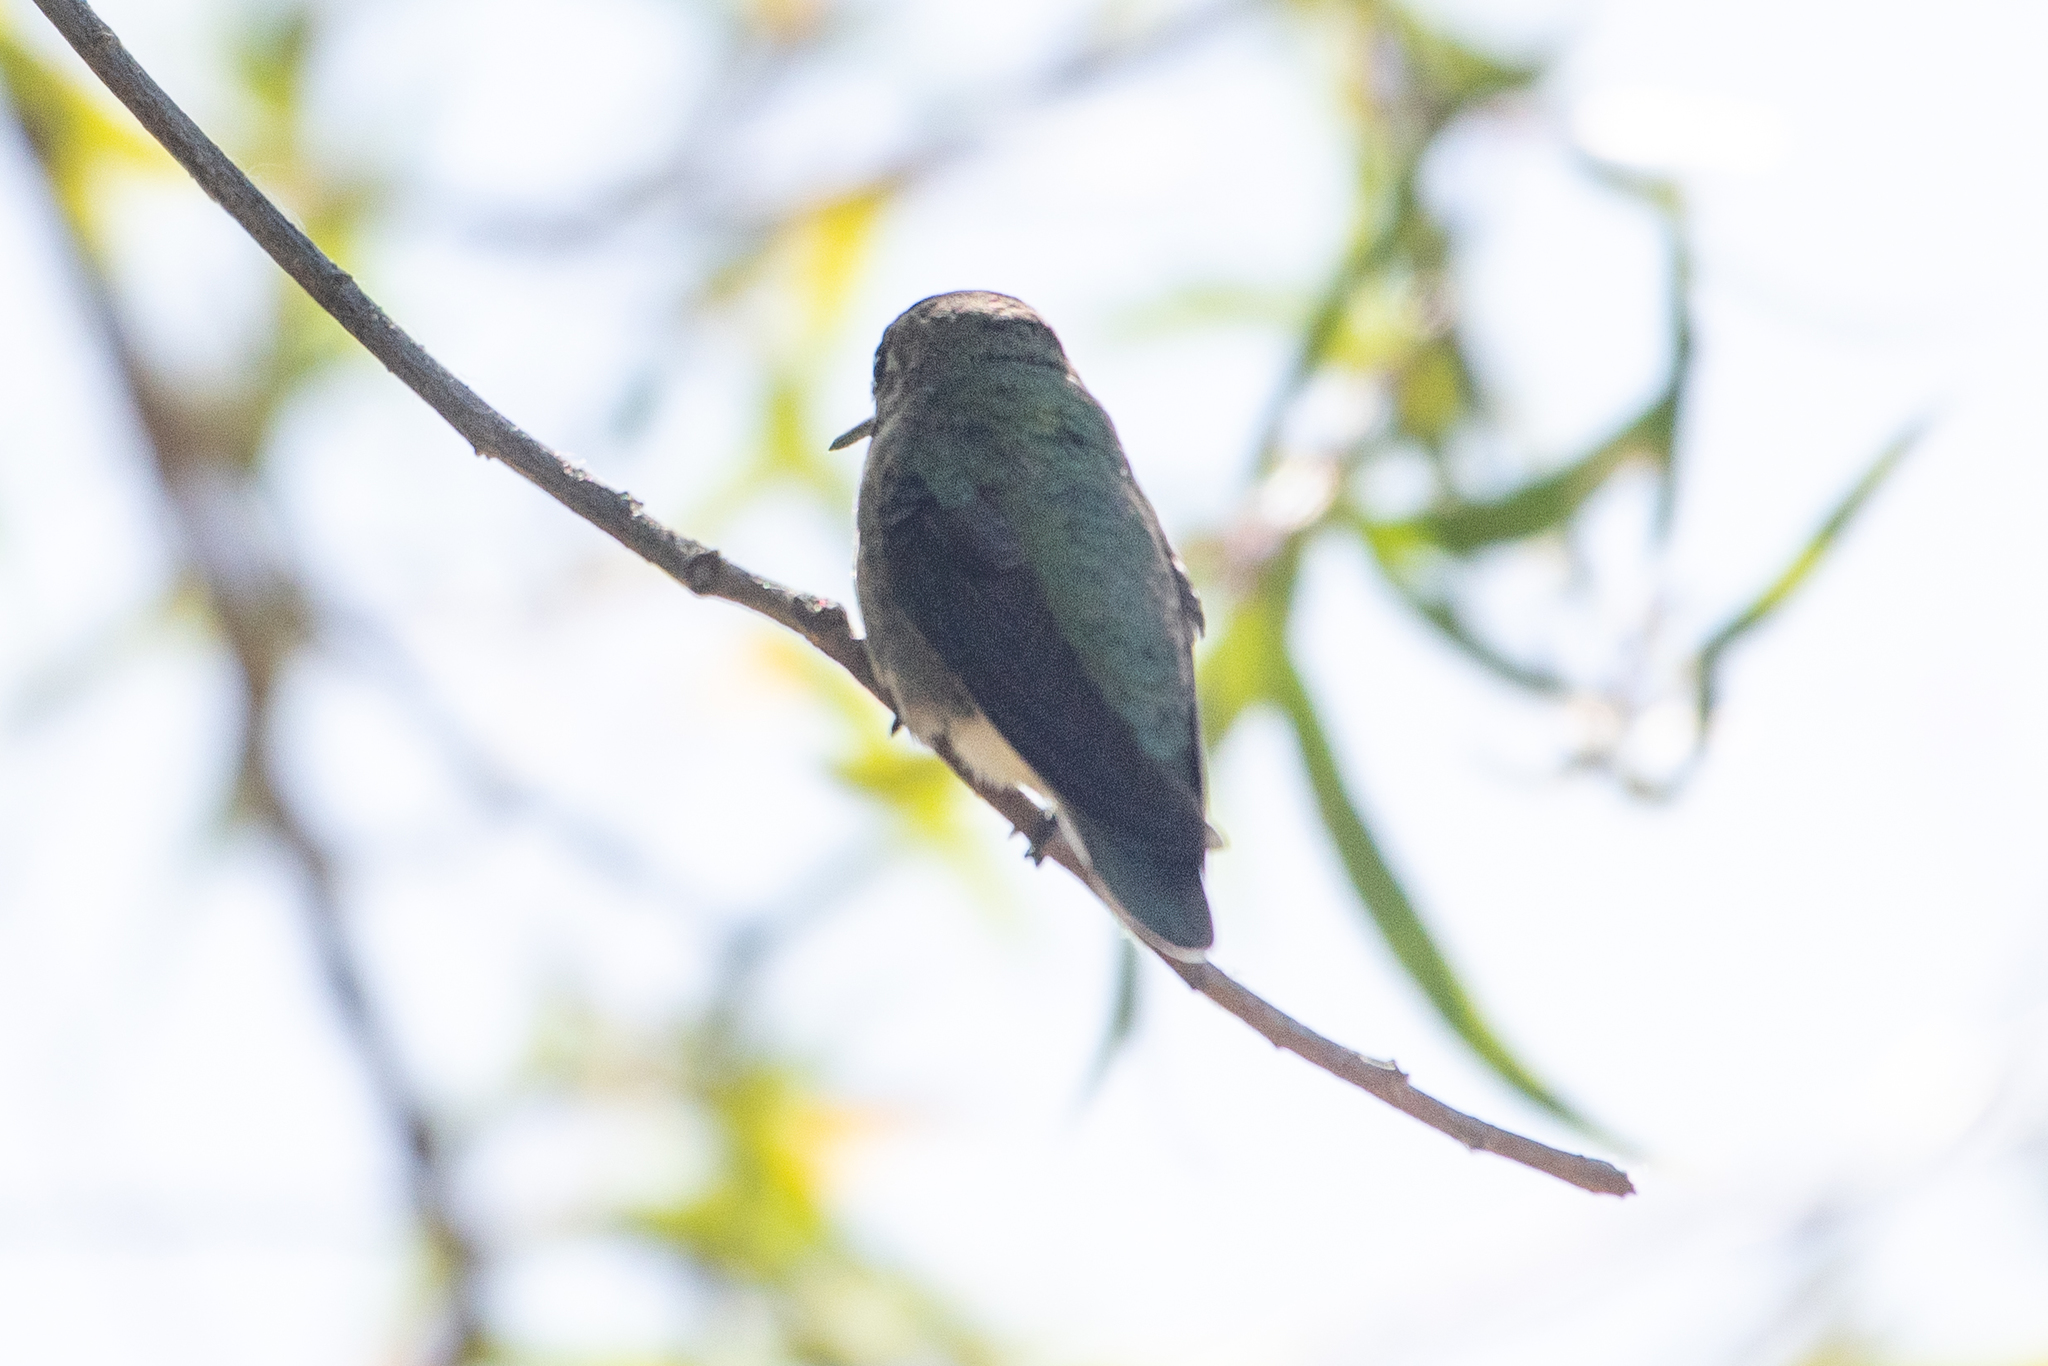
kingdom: Animalia
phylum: Chordata
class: Aves
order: Apodiformes
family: Trochilidae
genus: Calypte
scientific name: Calypte anna
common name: Anna's hummingbird
